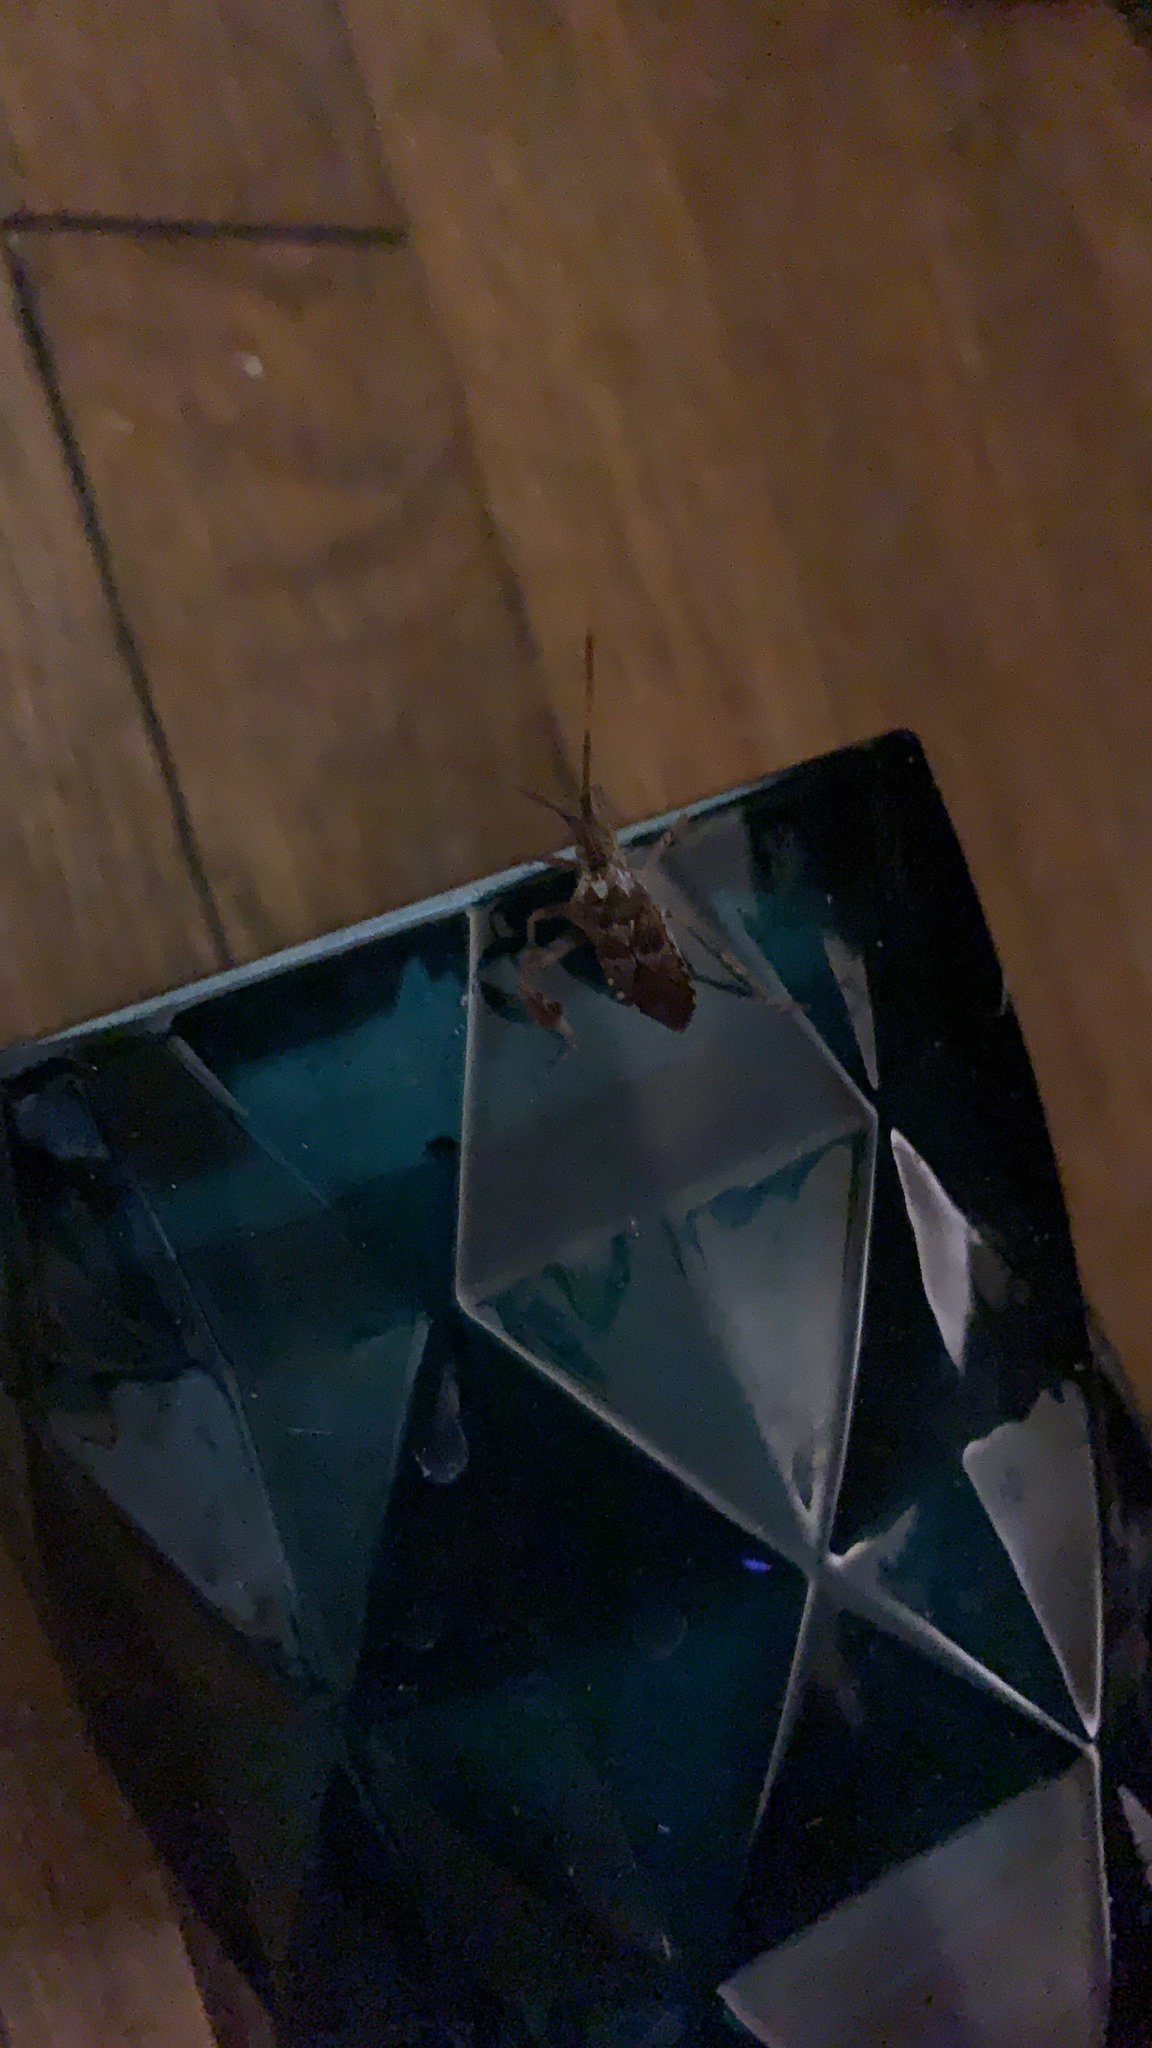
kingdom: Animalia
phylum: Arthropoda
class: Insecta
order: Hemiptera
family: Coreidae
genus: Leptoglossus
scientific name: Leptoglossus occidentalis
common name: Western conifer-seed bug
